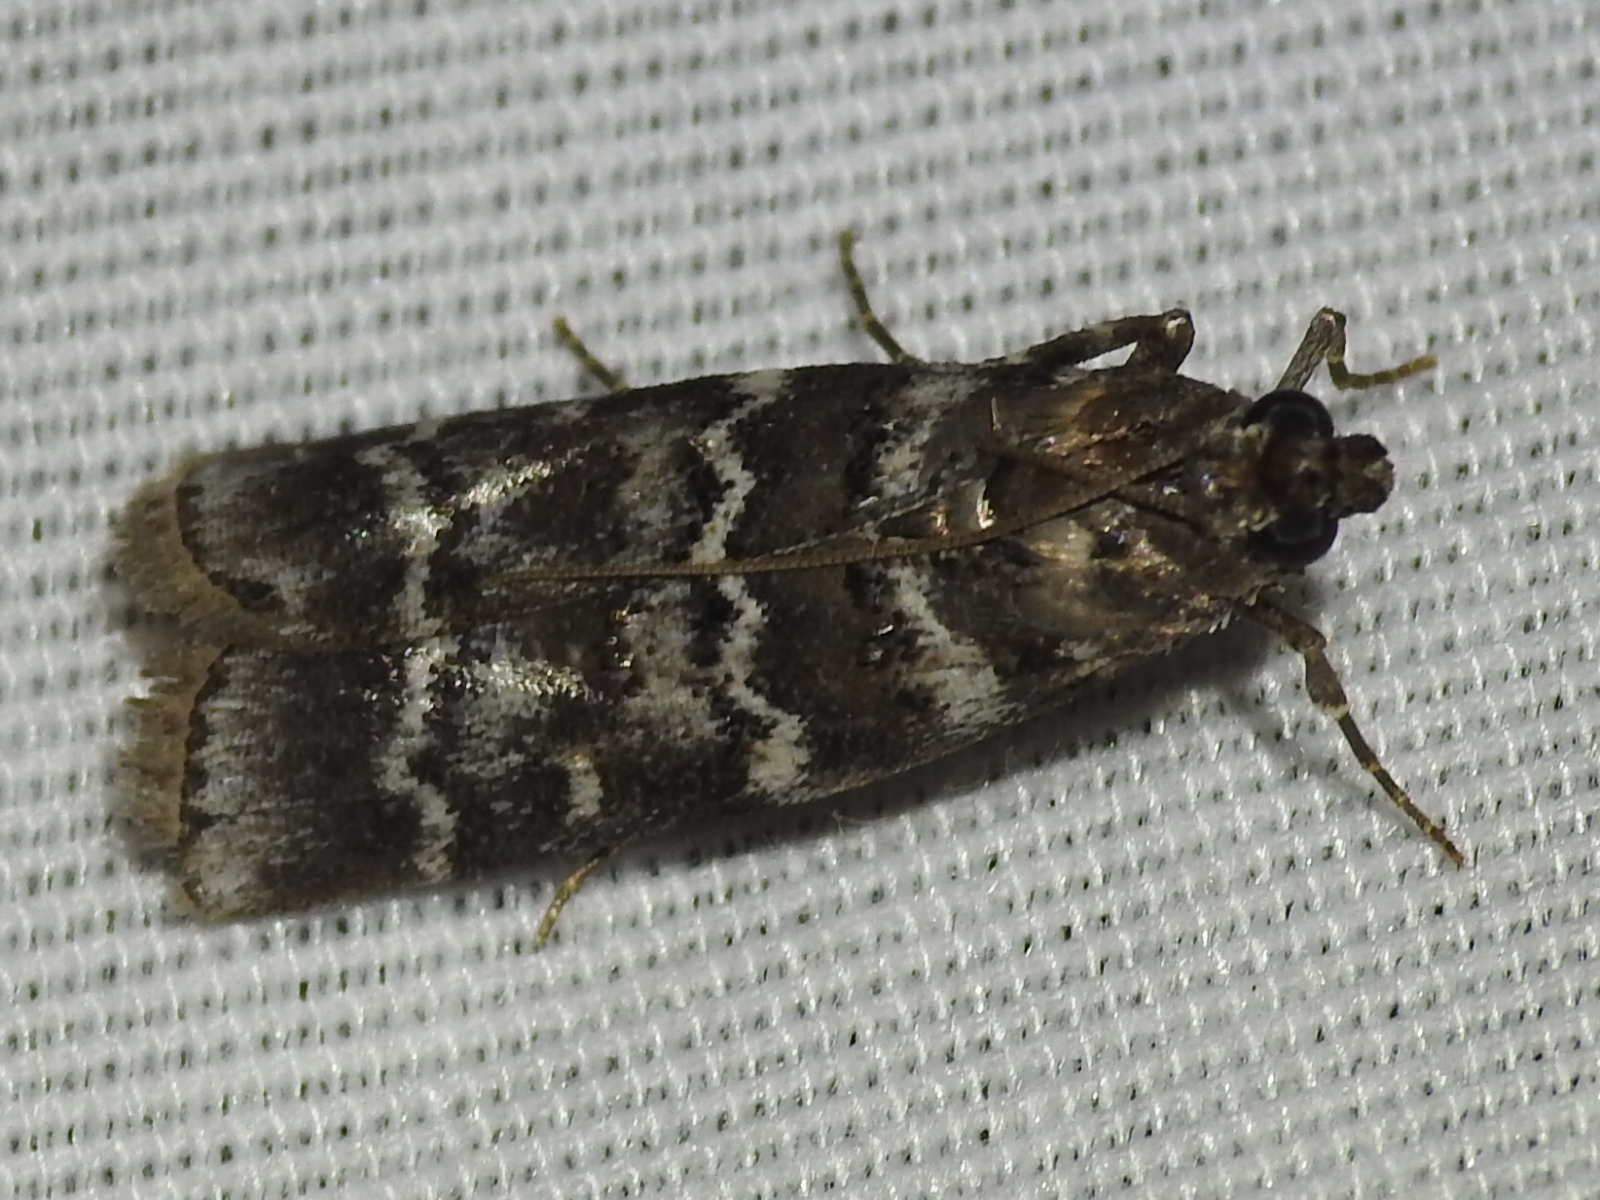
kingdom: Animalia
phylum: Arthropoda
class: Insecta
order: Lepidoptera
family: Pyralidae
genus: Dioryctria
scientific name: Dioryctria amatella
